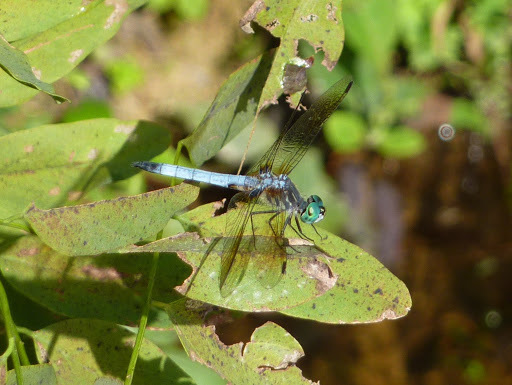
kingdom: Animalia
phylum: Arthropoda
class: Insecta
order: Odonata
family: Libellulidae
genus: Pachydiplax
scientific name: Pachydiplax longipennis
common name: Blue dasher
